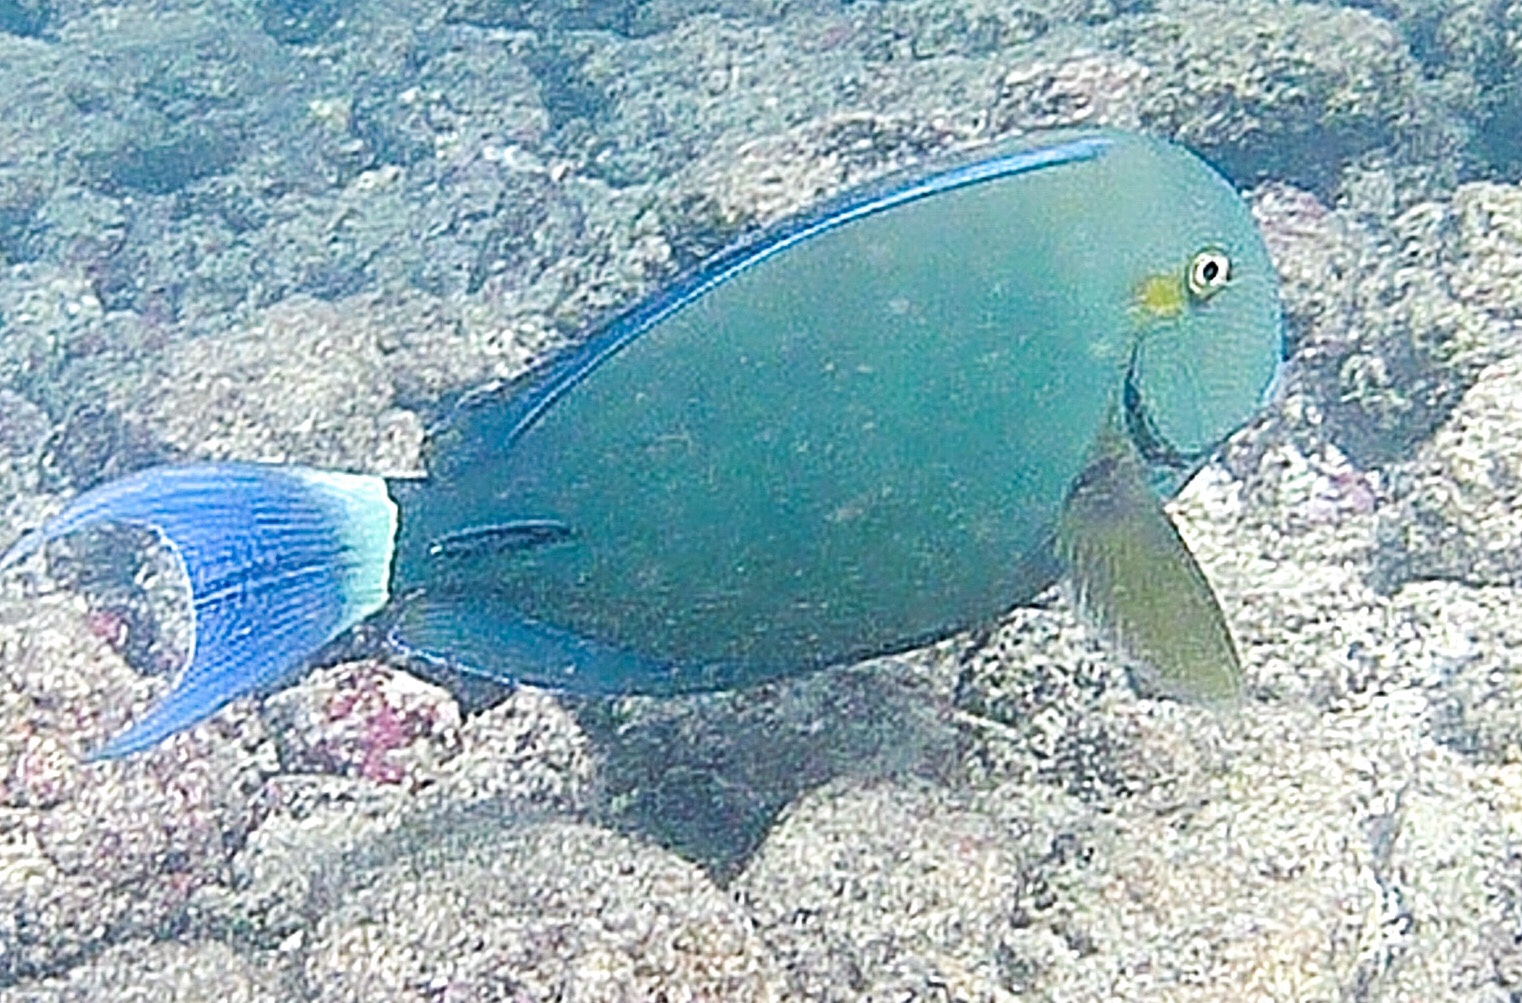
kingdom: Animalia
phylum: Chordata
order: Perciformes
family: Acanthuridae
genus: Acanthurus
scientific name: Acanthurus blochii
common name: Blue-banded pualu
